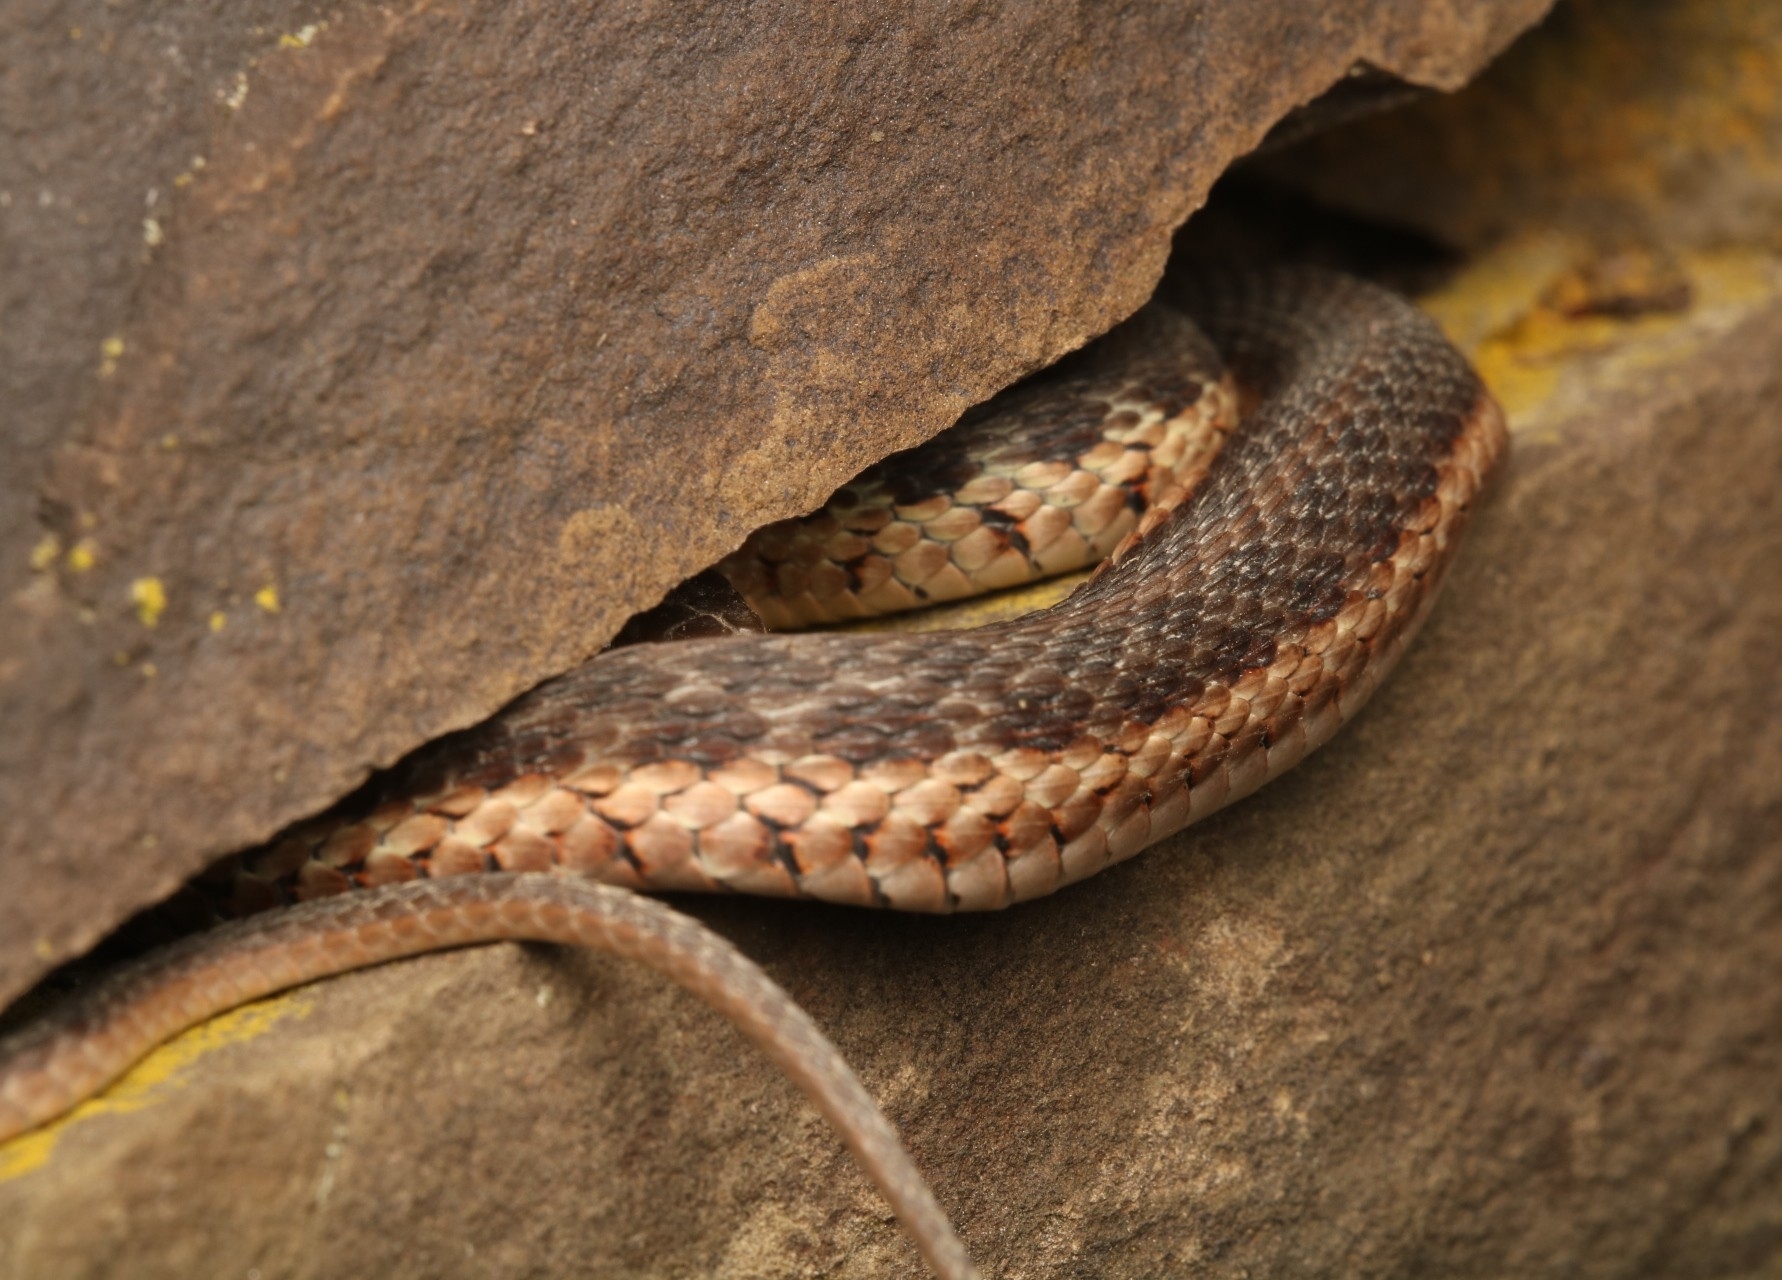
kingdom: Animalia
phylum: Chordata
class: Squamata
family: Colubridae
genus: Thamnophis
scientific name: Thamnophis sirtalis
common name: Common garter snake
